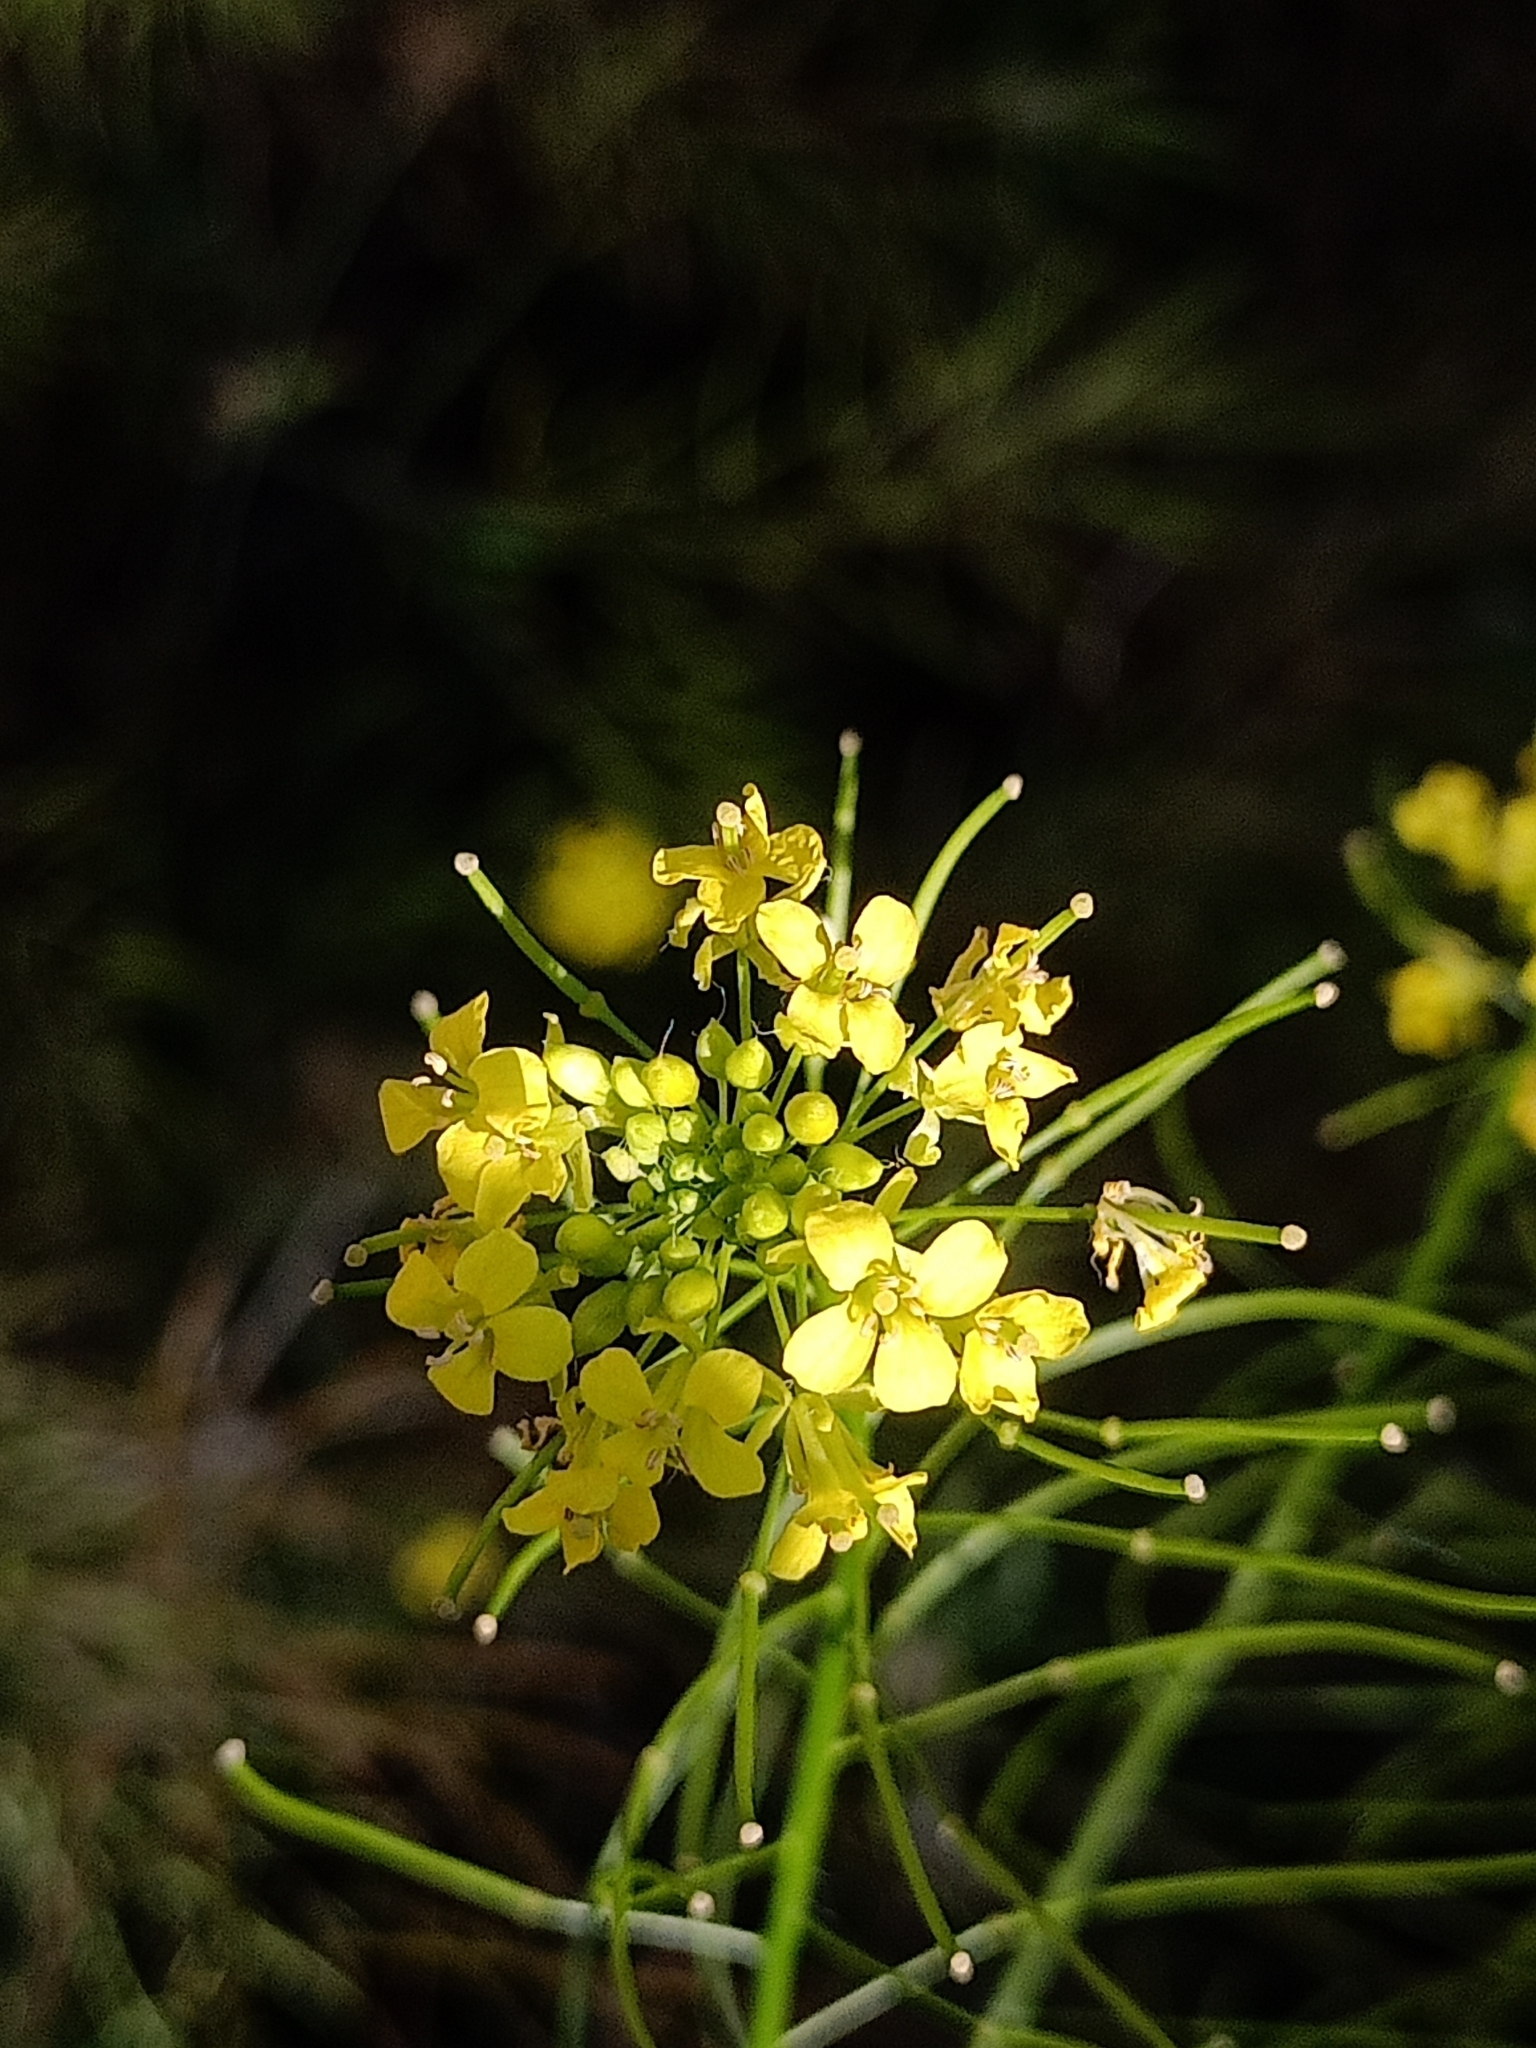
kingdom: Plantae
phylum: Tracheophyta
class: Magnoliopsida
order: Brassicales
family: Brassicaceae
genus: Sisymbrium
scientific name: Sisymbrium loeselii
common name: False london-rocket
